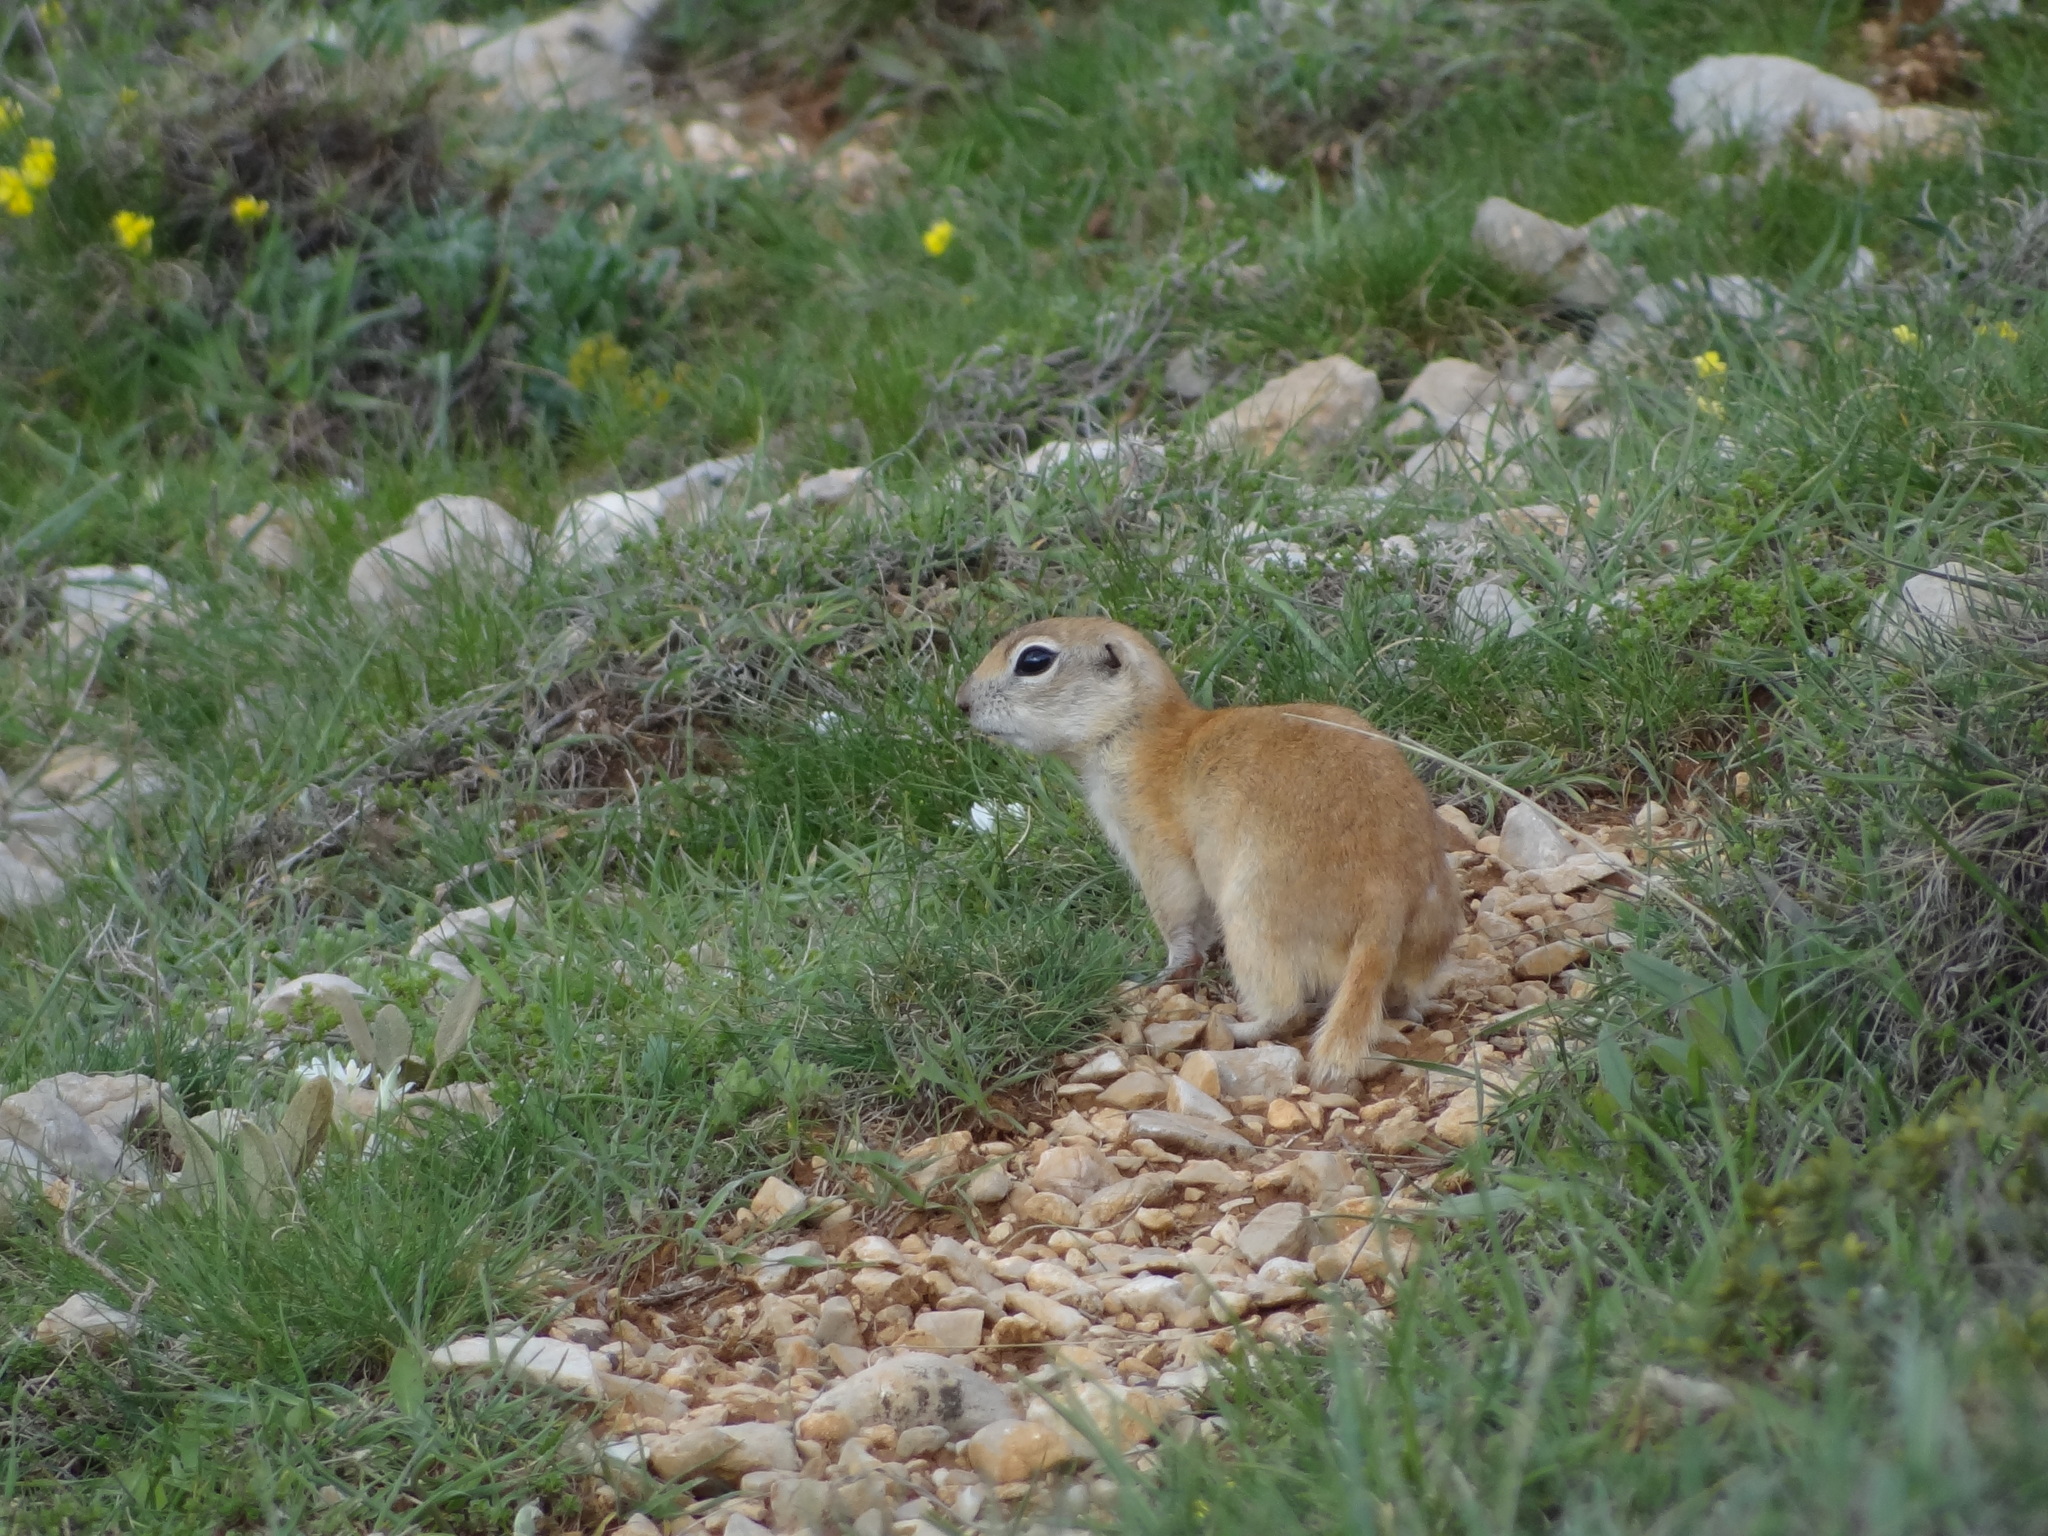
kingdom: Animalia
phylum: Chordata
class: Mammalia
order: Rodentia
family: Sciuridae
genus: Spermophilus
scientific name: Spermophilus xanthoprymnus
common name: Asia minor ground squirrel
